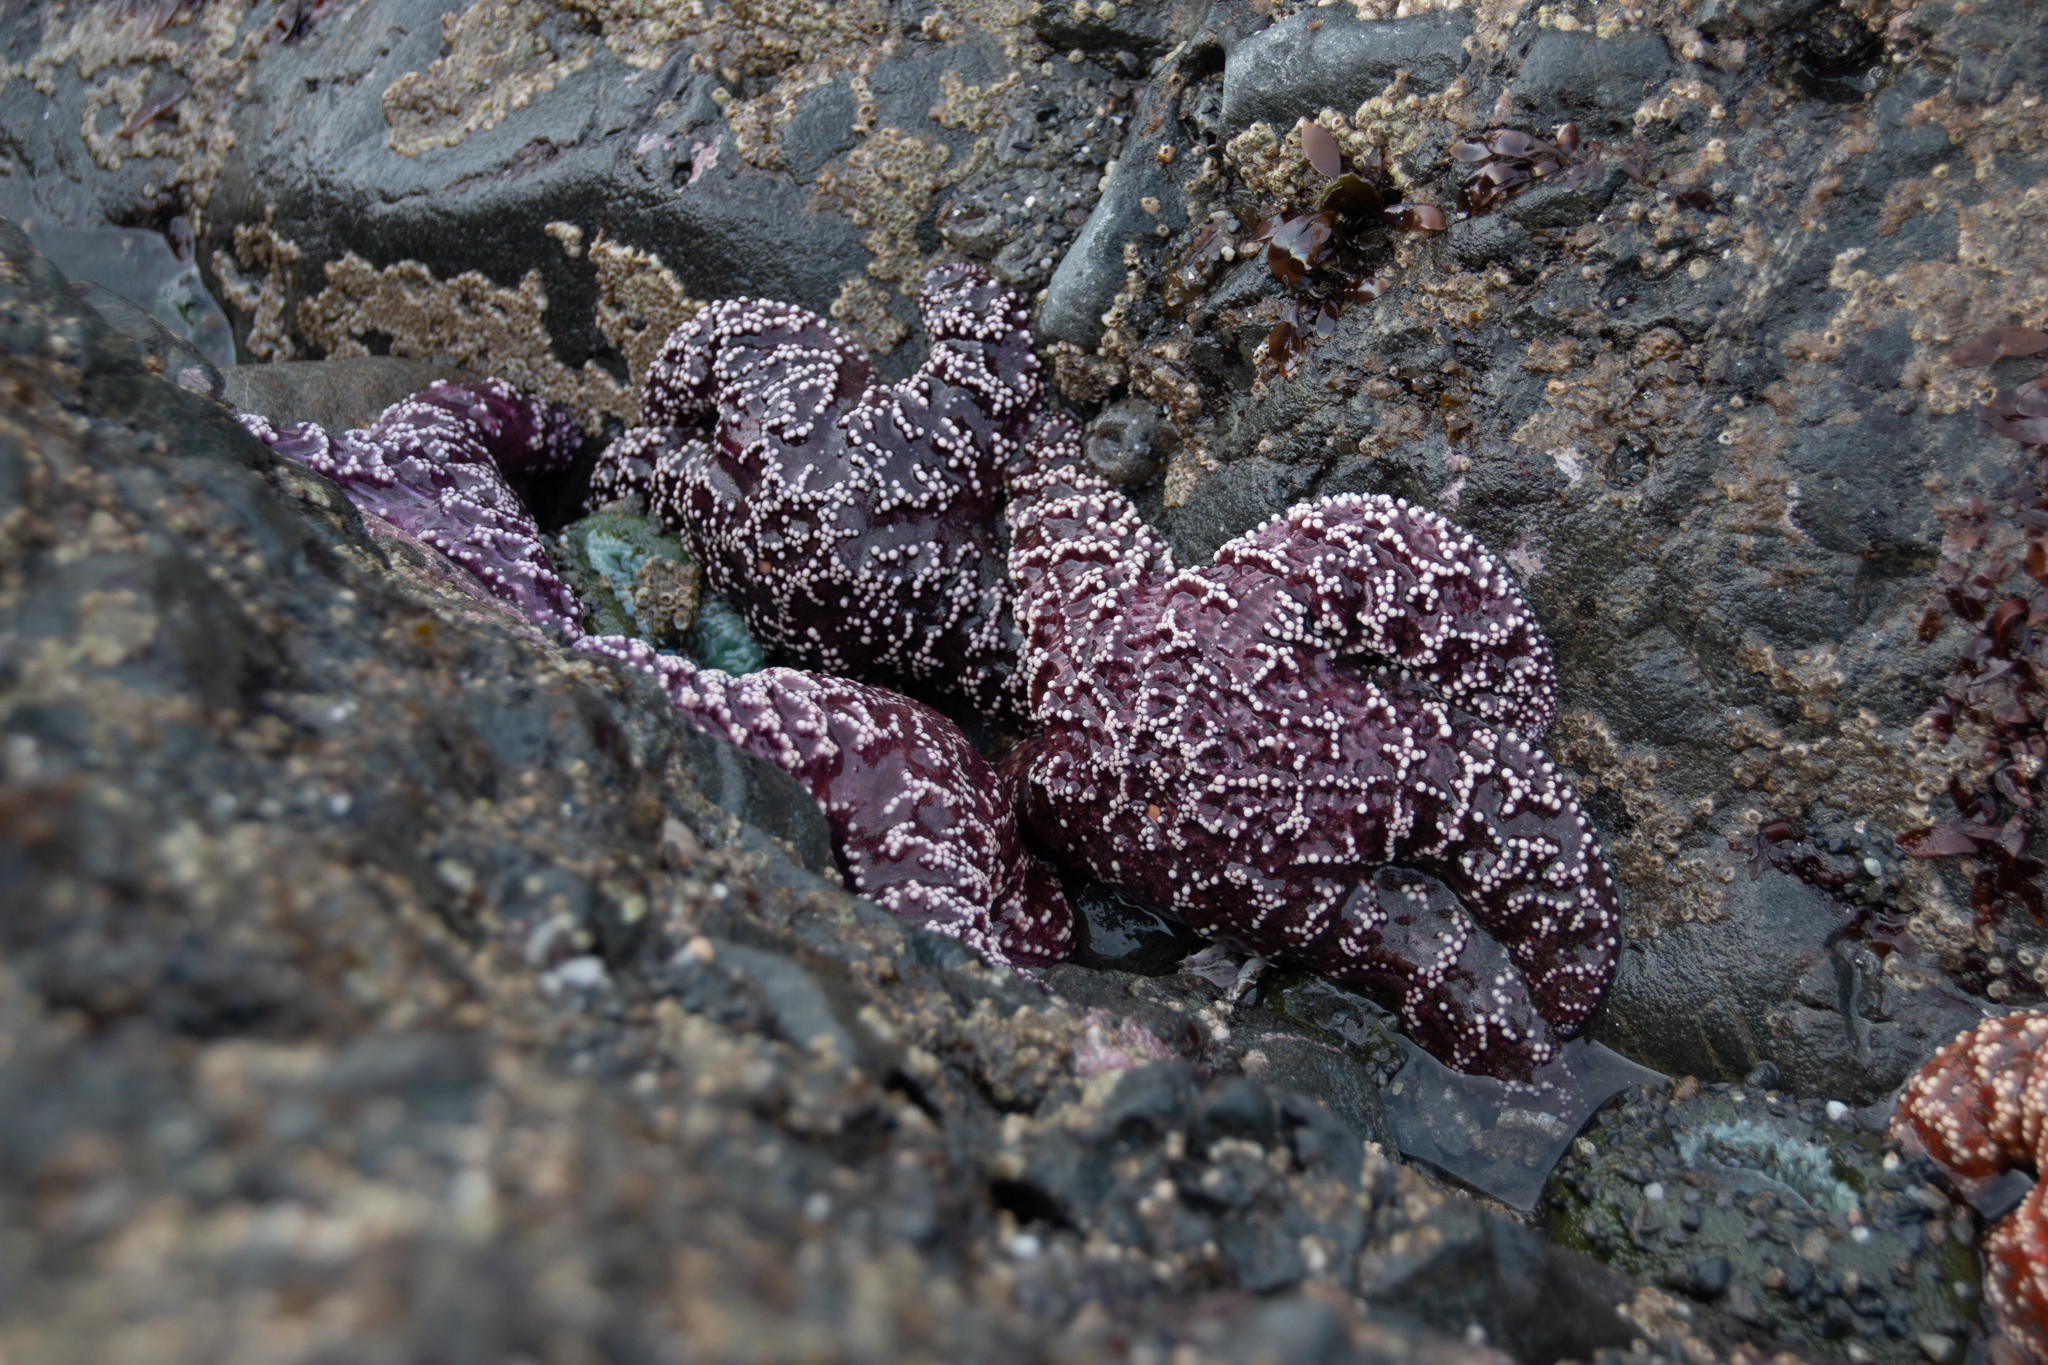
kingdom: Animalia
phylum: Echinodermata
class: Asteroidea
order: Forcipulatida
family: Asteriidae
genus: Pisaster
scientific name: Pisaster ochraceus
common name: Ochre stars
